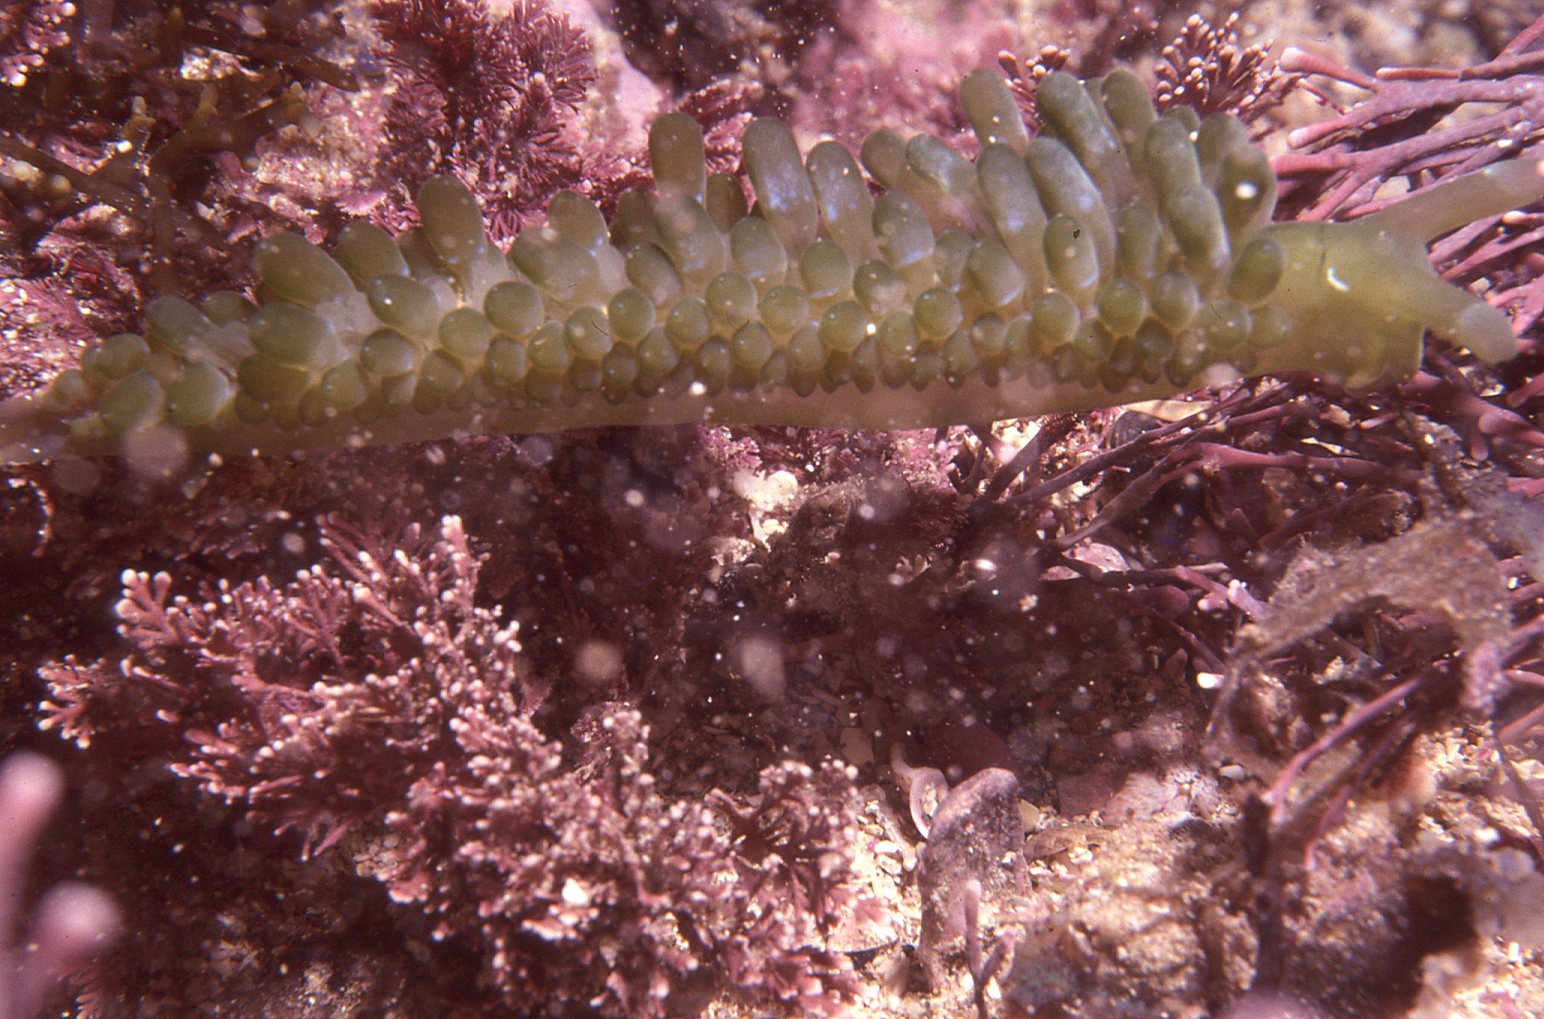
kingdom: Animalia
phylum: Mollusca
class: Gastropoda
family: Limapontiidae
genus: Sacoproteus
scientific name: Sacoproteus smaragdinus
